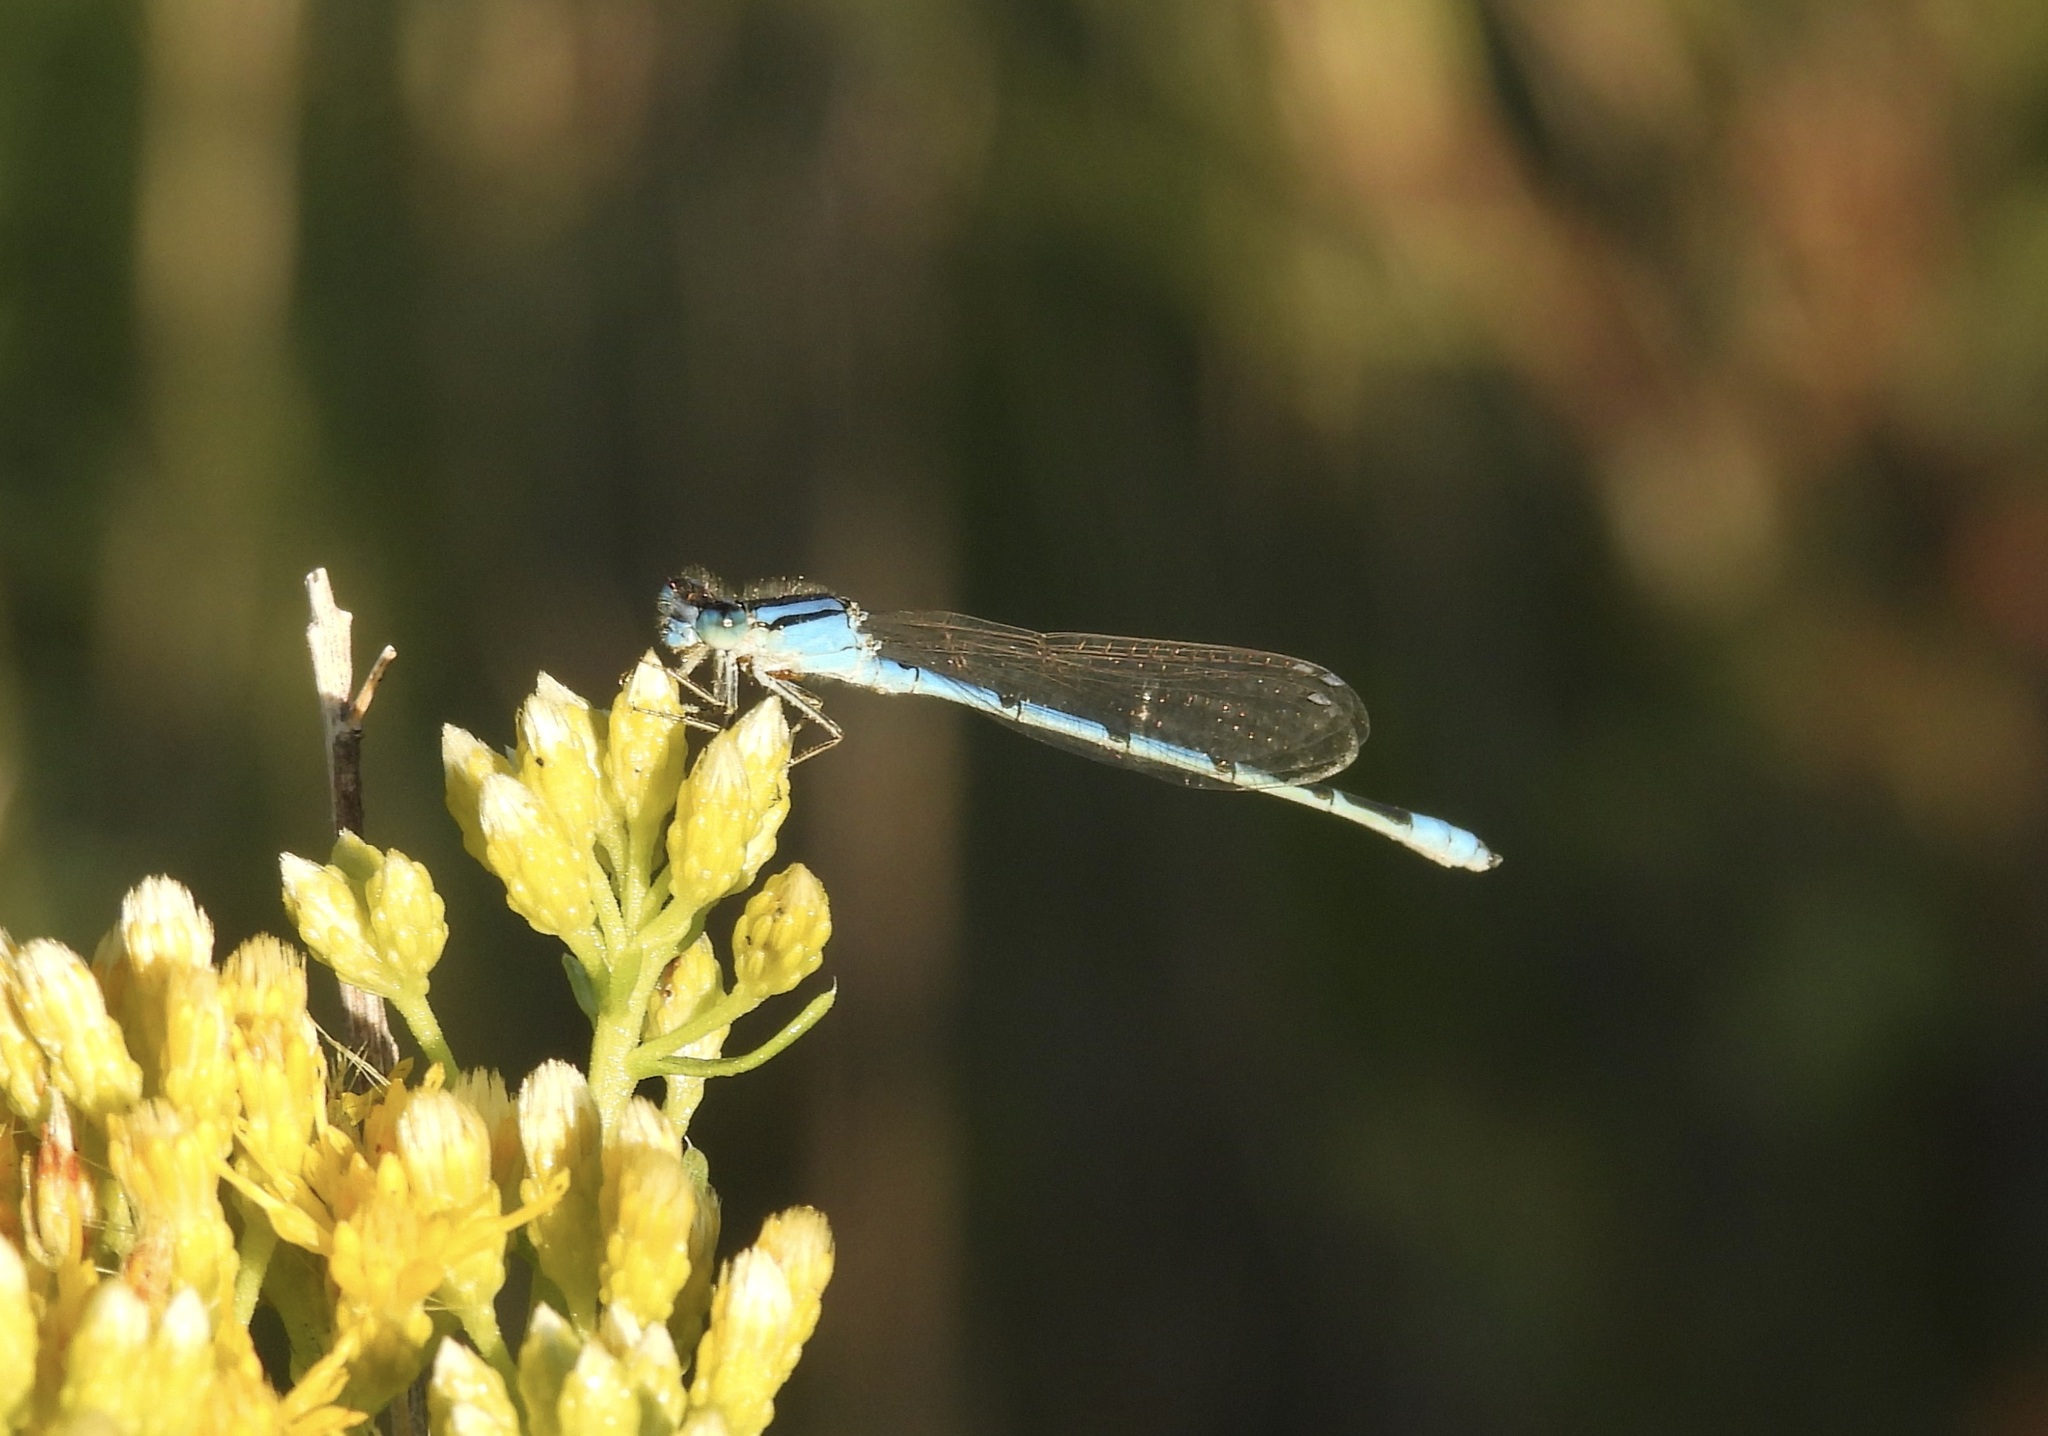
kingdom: Animalia
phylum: Arthropoda
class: Insecta
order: Odonata
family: Coenagrionidae
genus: Enallagma
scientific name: Enallagma civile
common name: Damselfly
